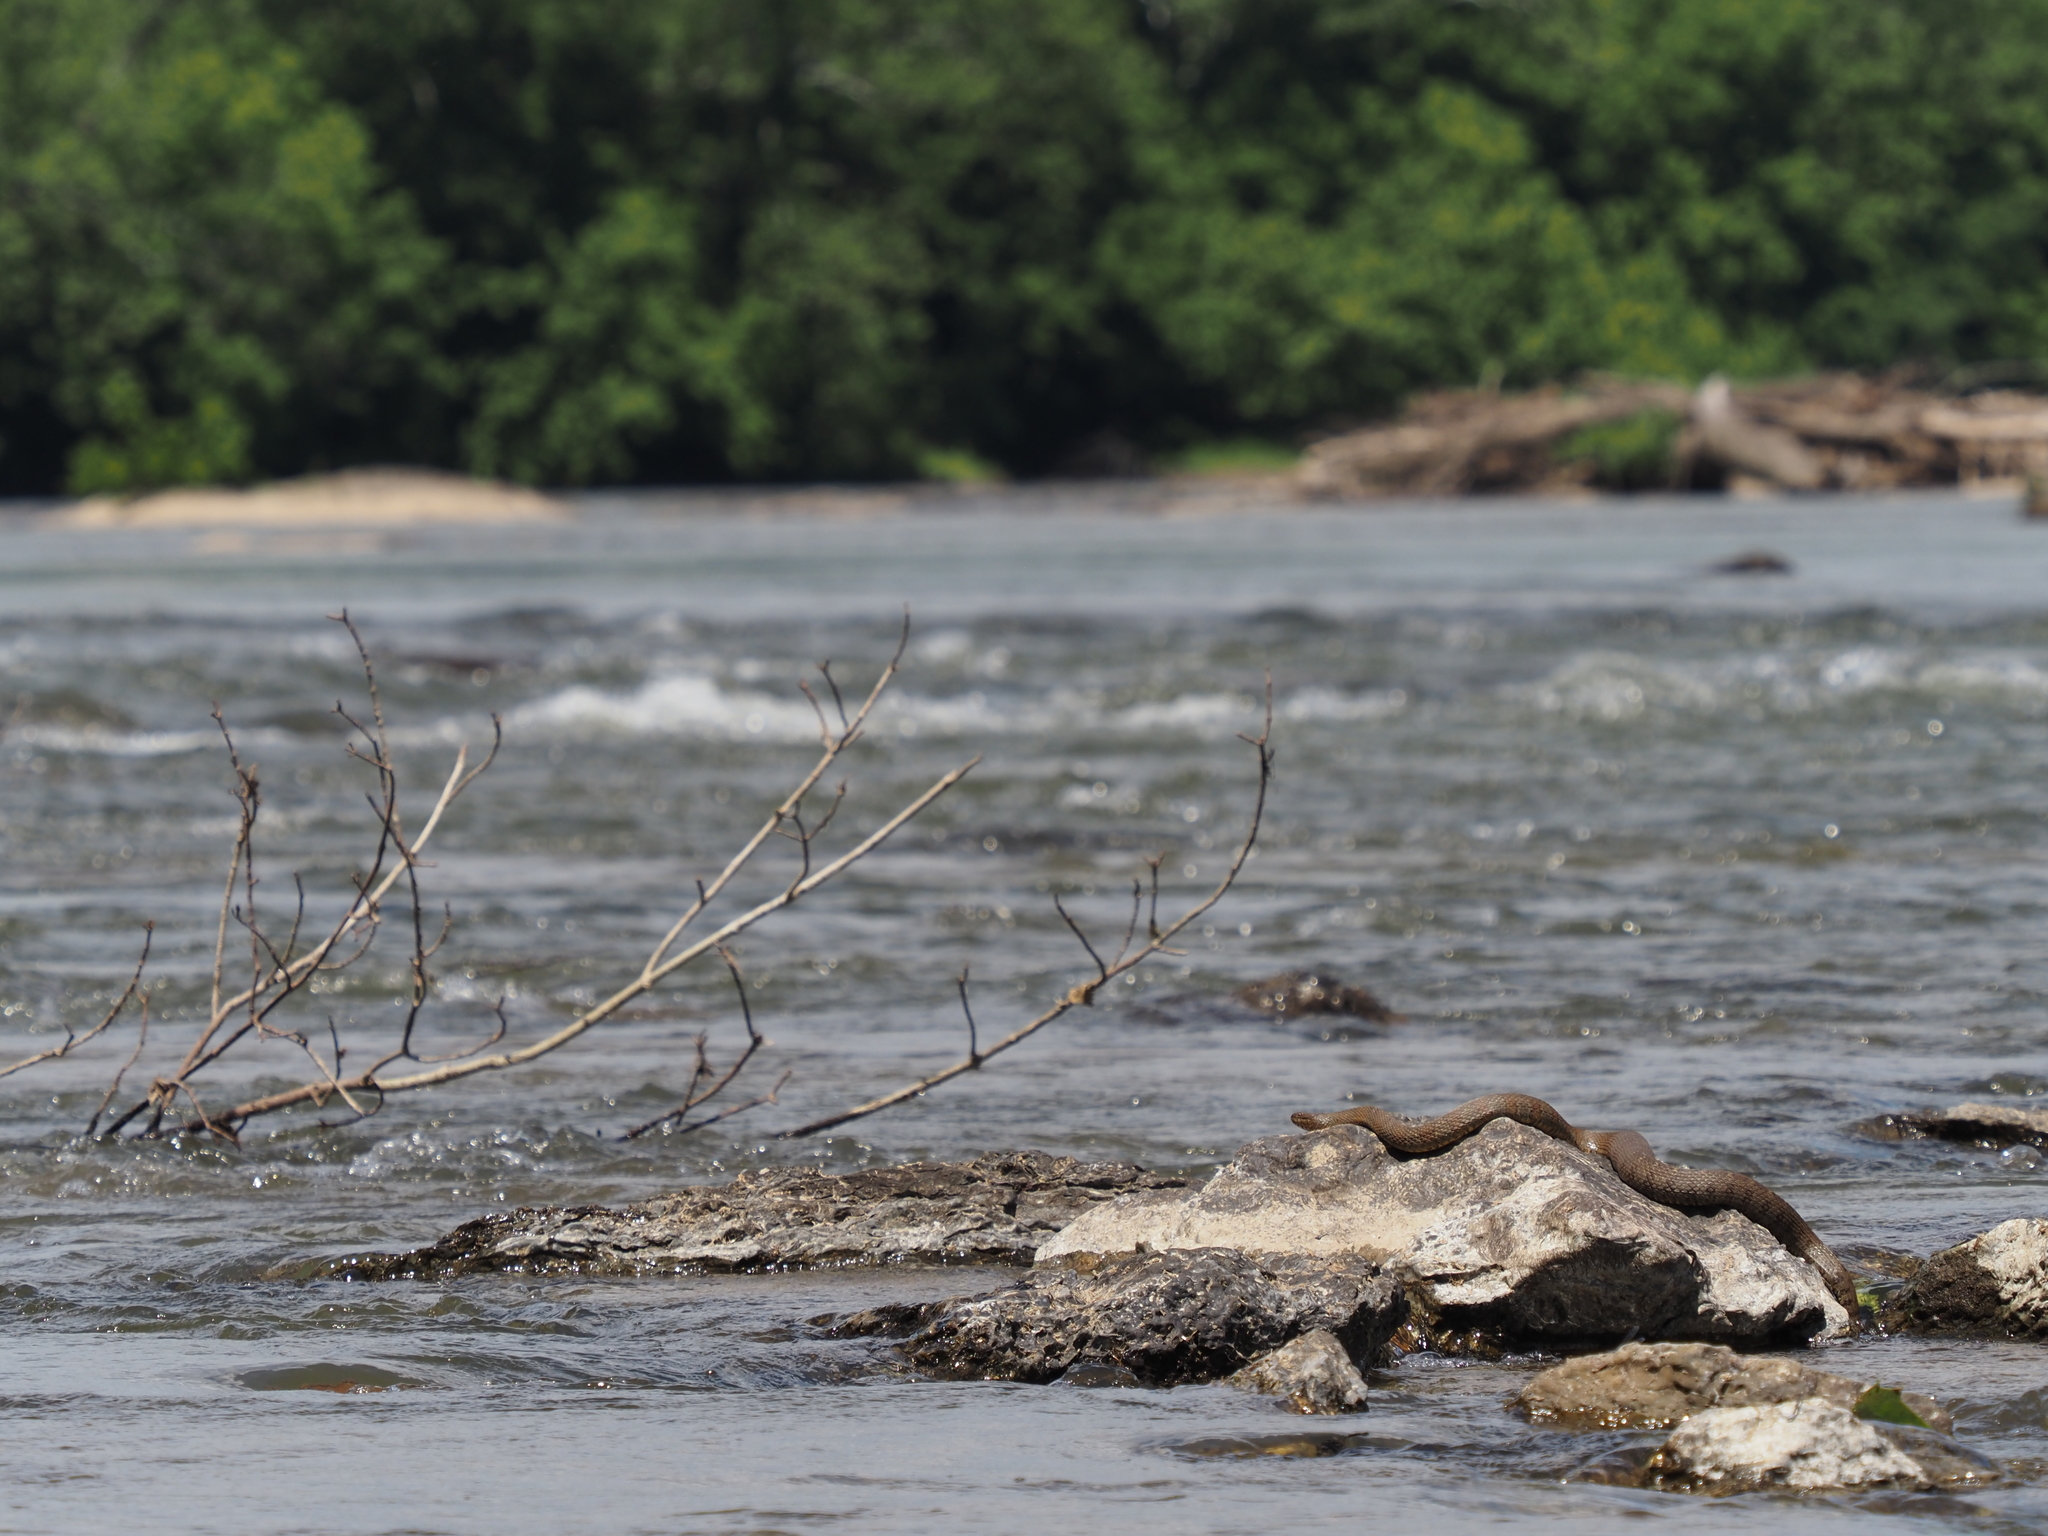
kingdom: Animalia
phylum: Chordata
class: Squamata
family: Colubridae
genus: Nerodia
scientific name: Nerodia sipedon
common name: Northern water snake
